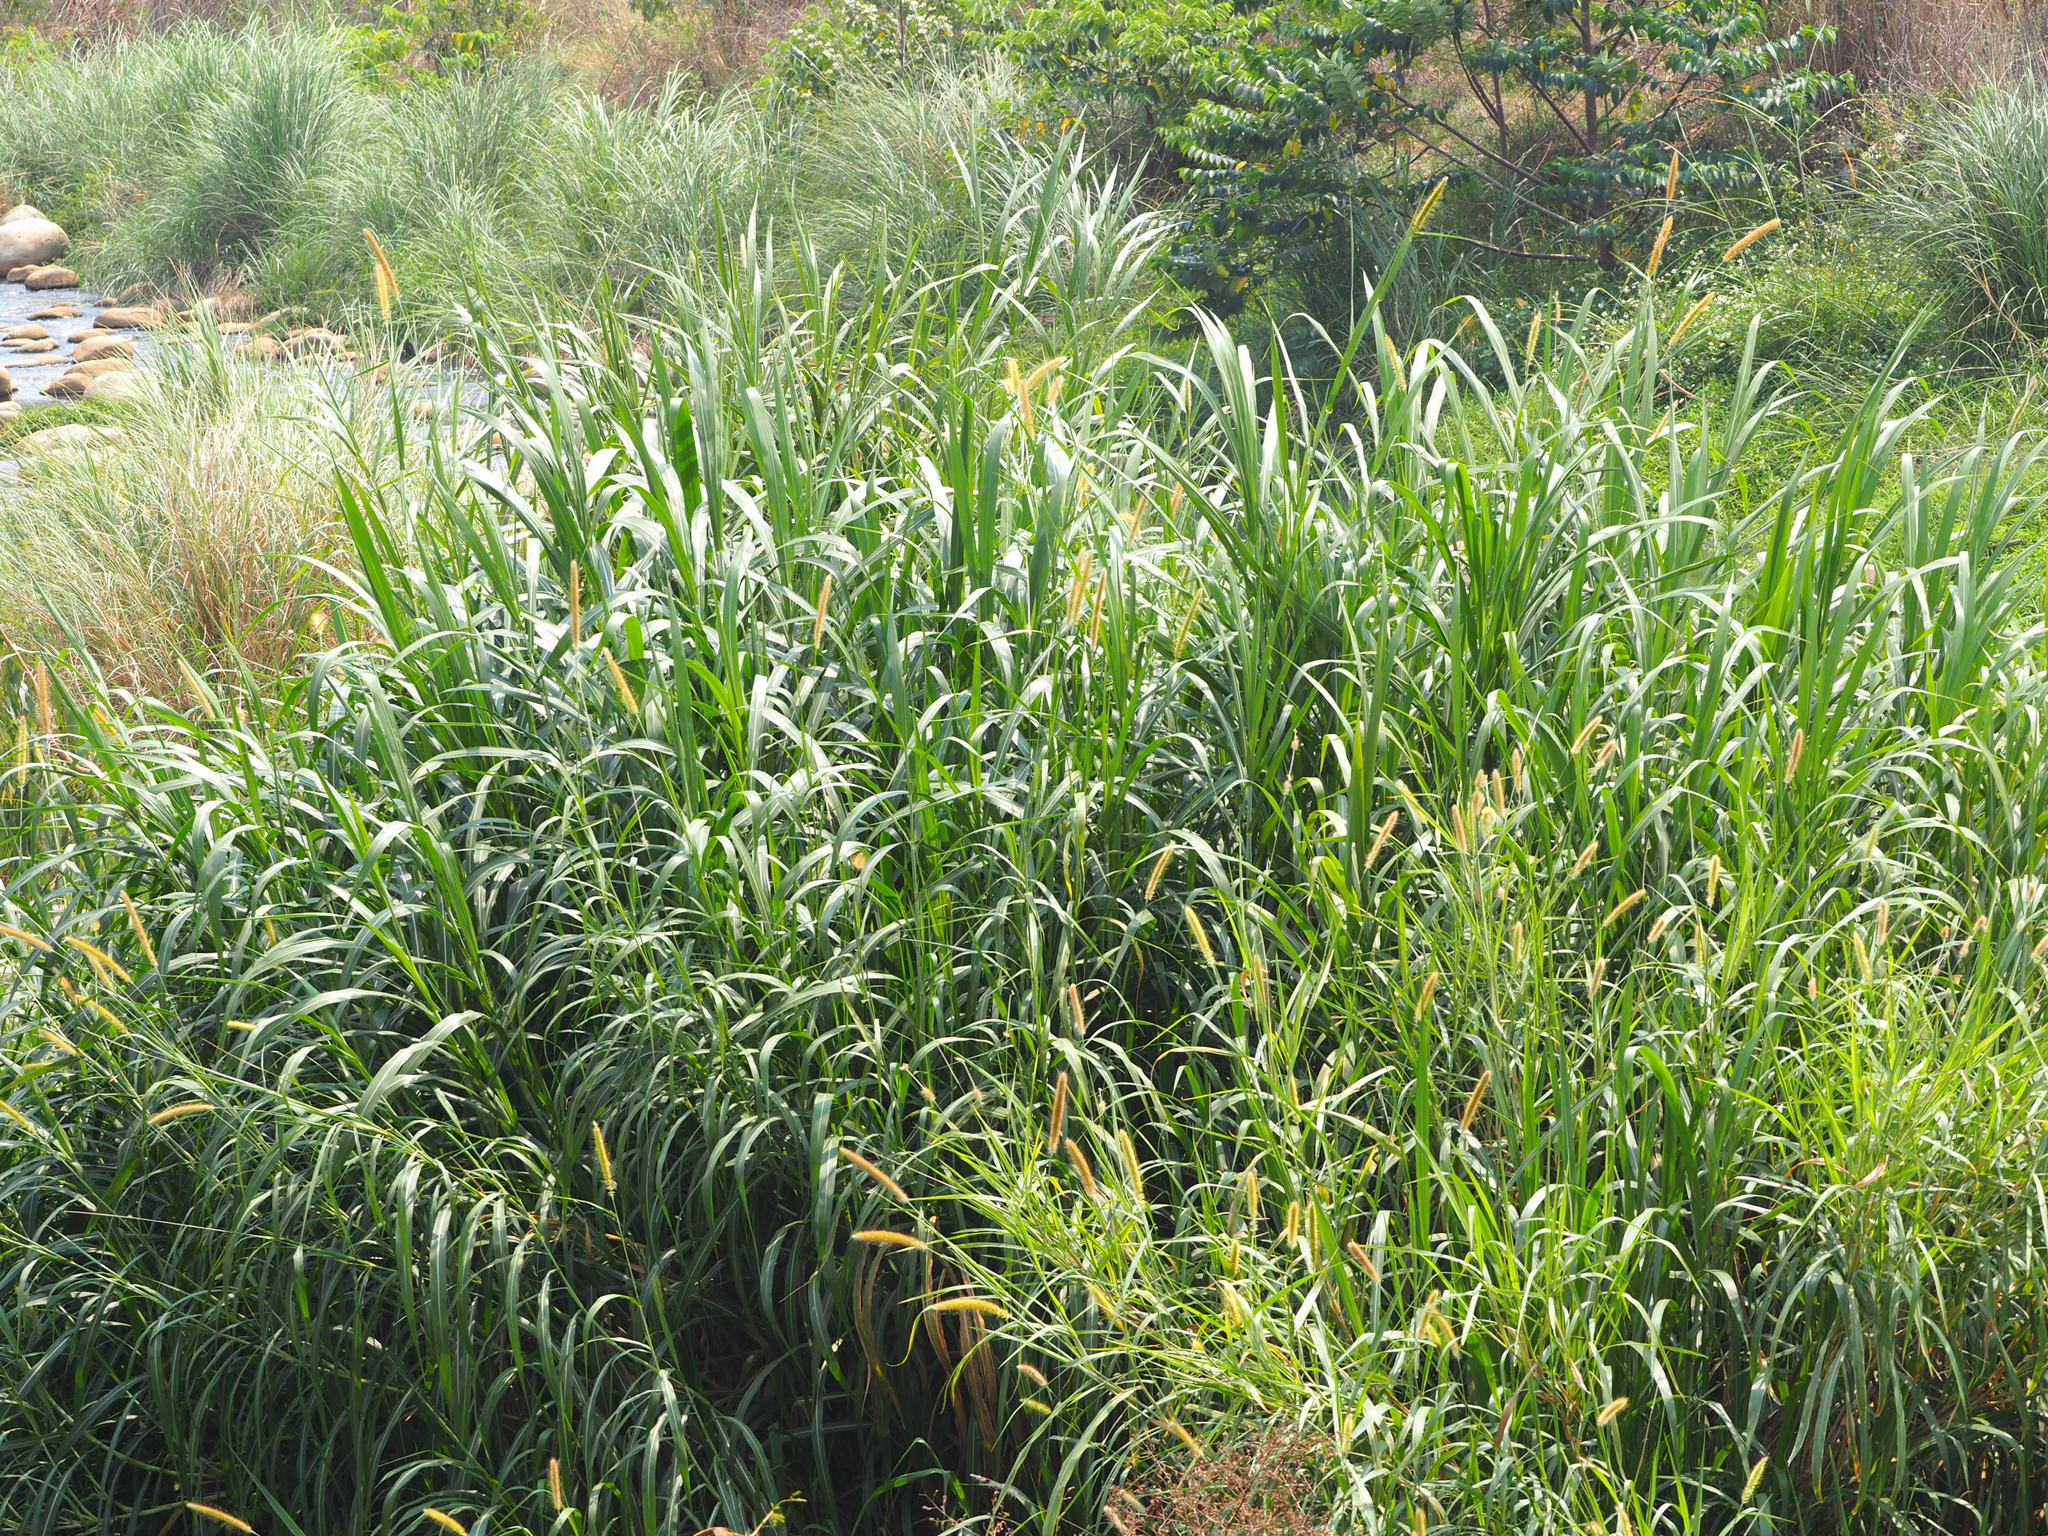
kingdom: Plantae
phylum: Tracheophyta
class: Liliopsida
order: Poales
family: Poaceae
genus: Cenchrus
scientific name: Cenchrus purpureus
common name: Elephant grass
